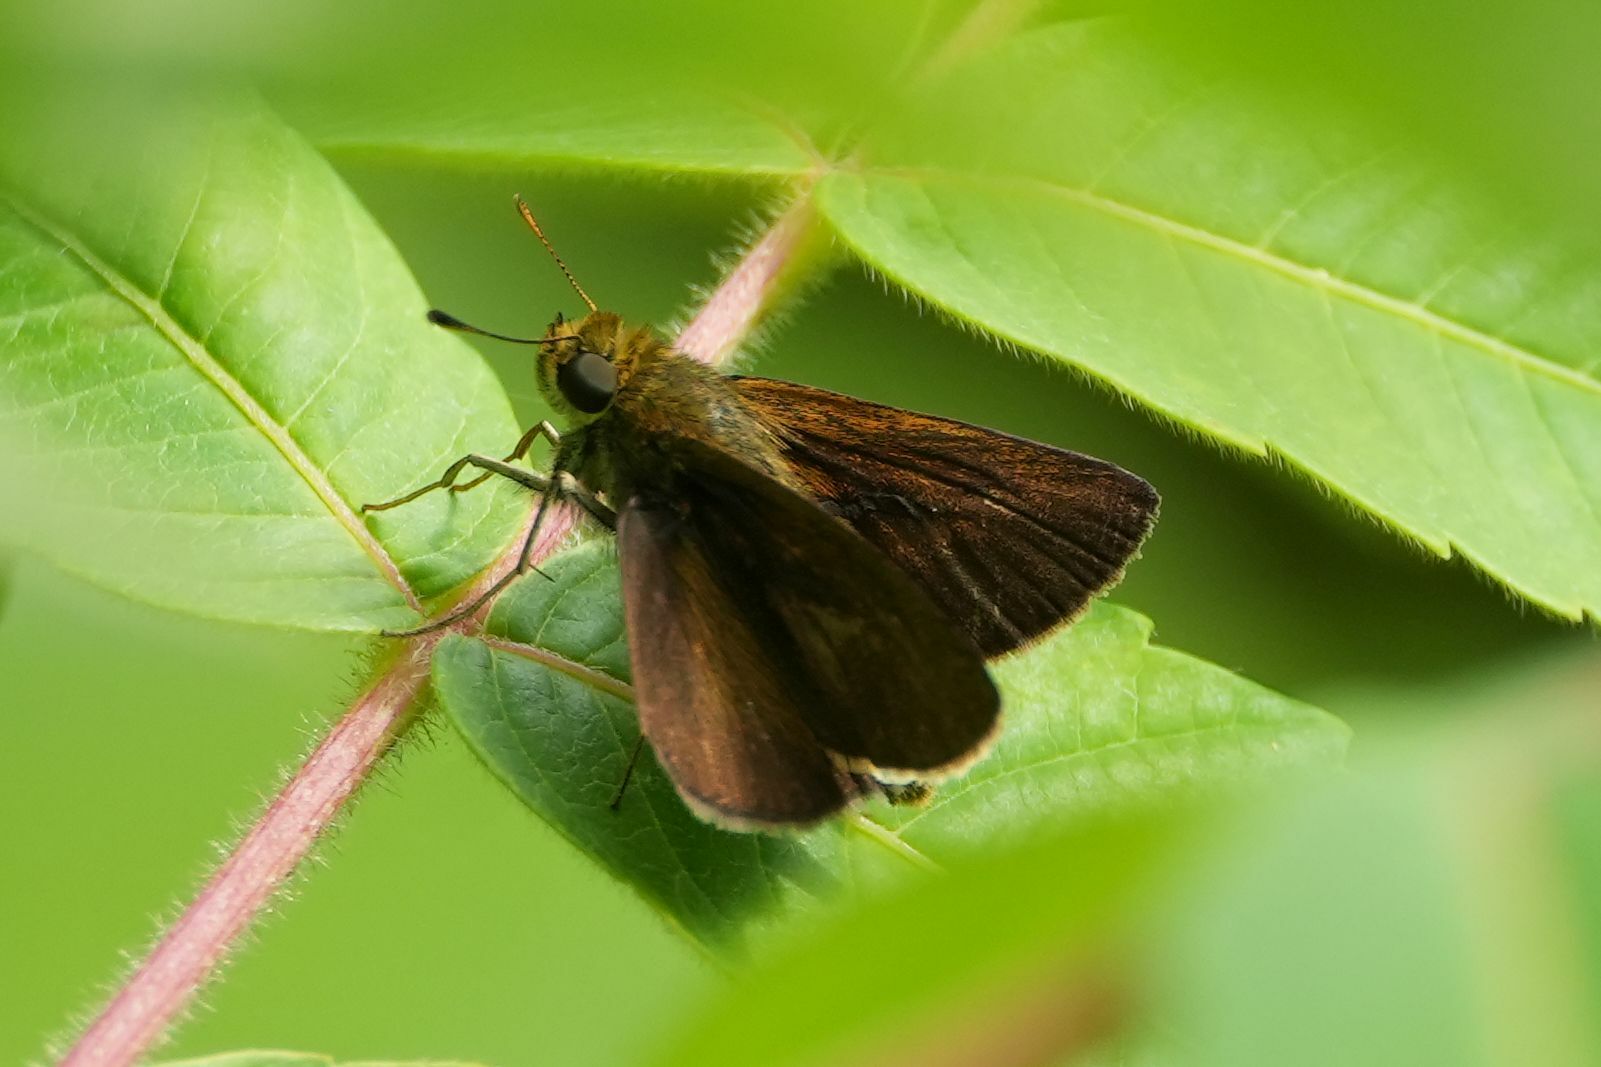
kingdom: Animalia
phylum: Arthropoda
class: Insecta
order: Lepidoptera
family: Hesperiidae
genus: Euphyes
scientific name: Euphyes vestris
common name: Dun skipper
